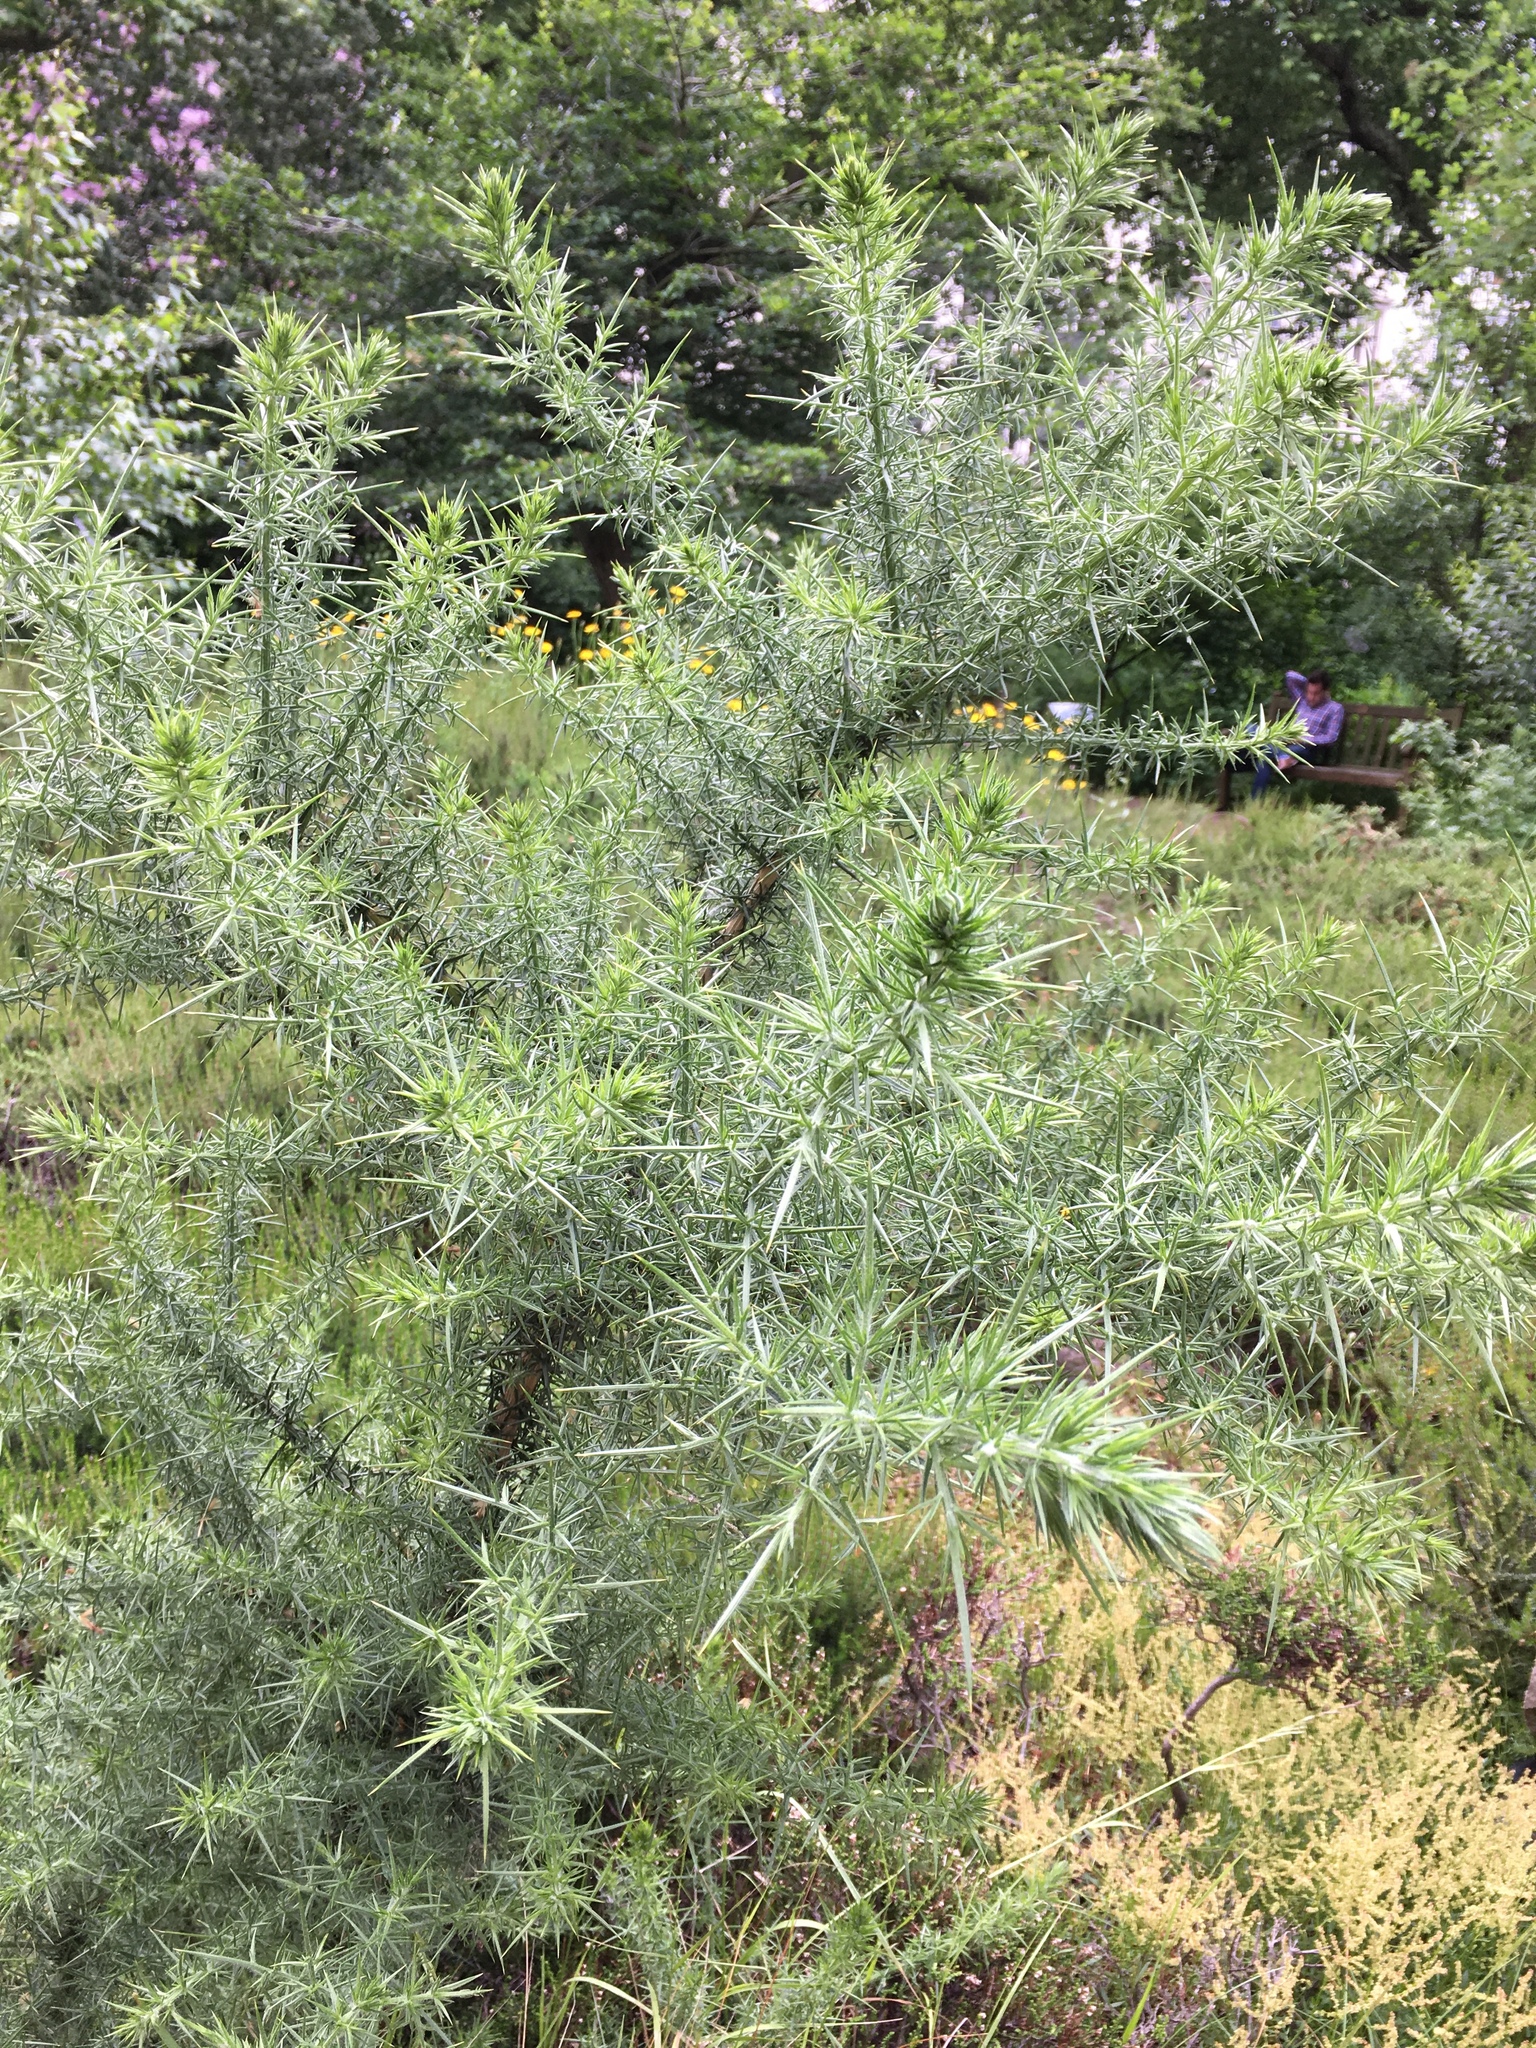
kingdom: Plantae
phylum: Tracheophyta
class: Magnoliopsida
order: Fabales
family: Fabaceae
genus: Ulex
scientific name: Ulex europaeus
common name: Common gorse
